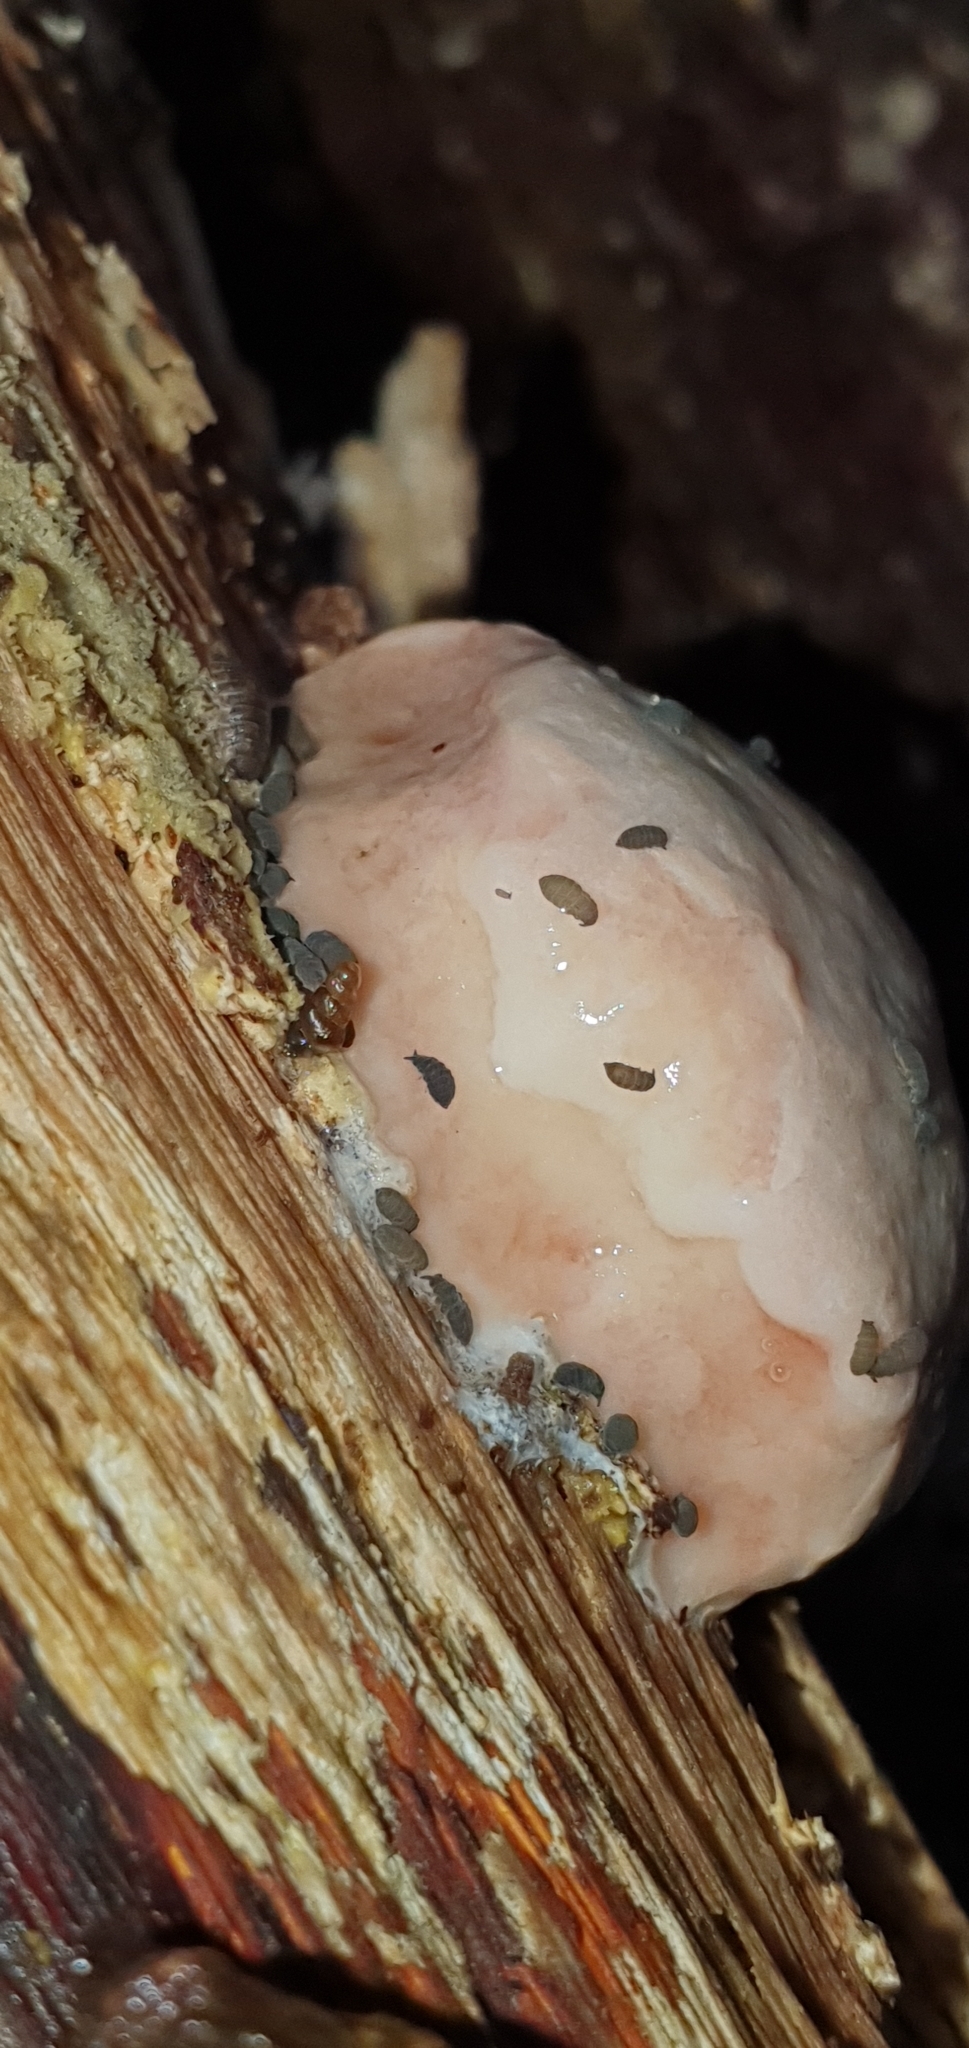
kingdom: Protozoa
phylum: Mycetozoa
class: Myxomycetes
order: Cribrariales
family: Tubiferaceae
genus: Reticularia
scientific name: Reticularia lycoperdon
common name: False puffball
